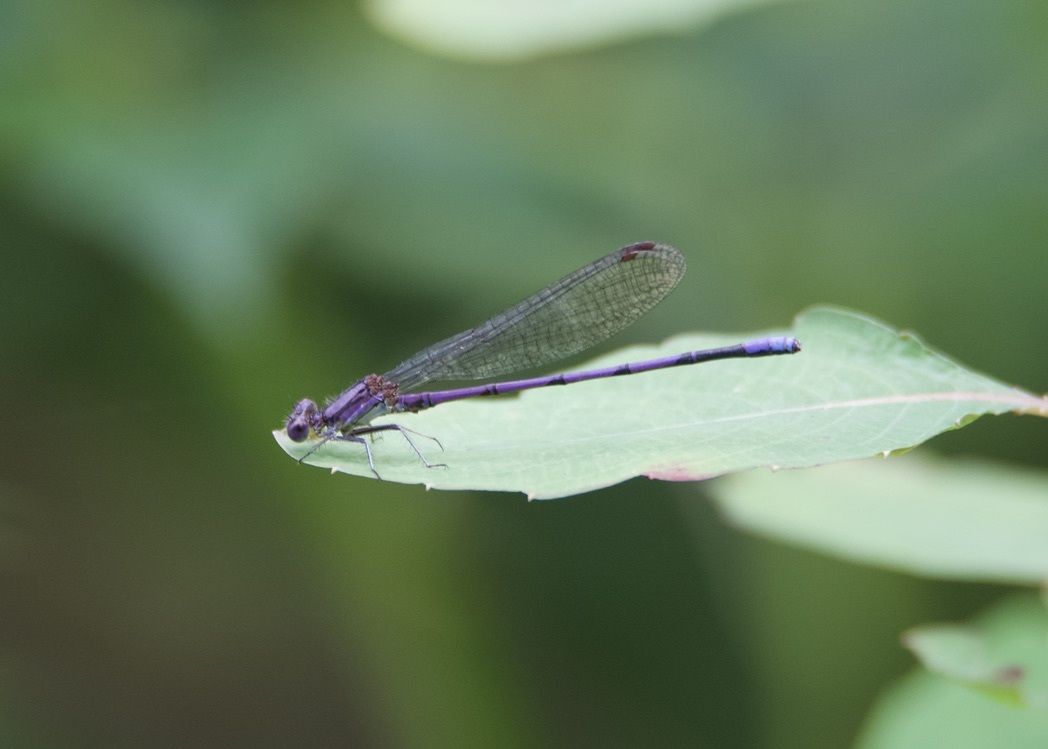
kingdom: Animalia
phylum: Arthropoda
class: Insecta
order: Odonata
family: Coenagrionidae
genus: Argia
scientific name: Argia fumipennis
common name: Variable dancer
